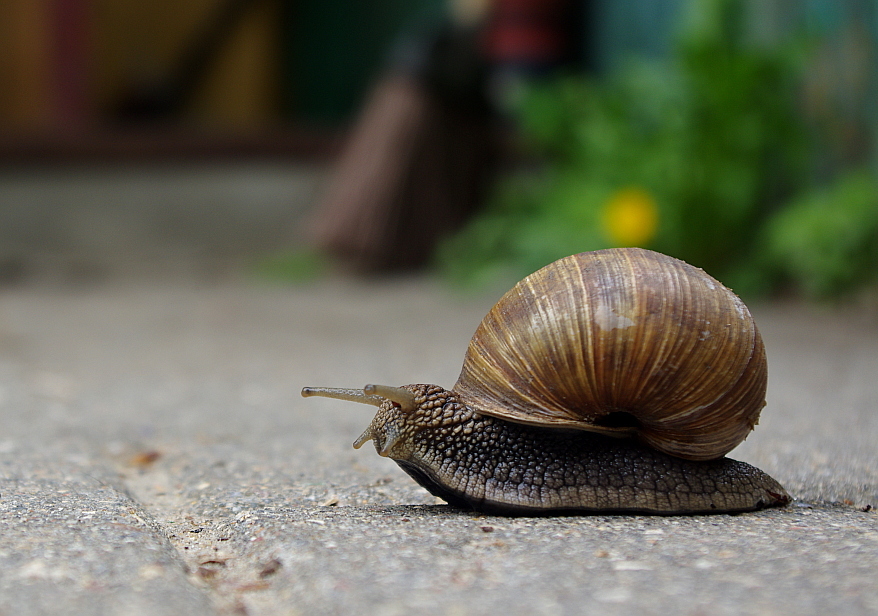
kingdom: Animalia
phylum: Mollusca
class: Gastropoda
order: Stylommatophora
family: Helicidae
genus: Helix
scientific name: Helix pomatia
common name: Roman snail
